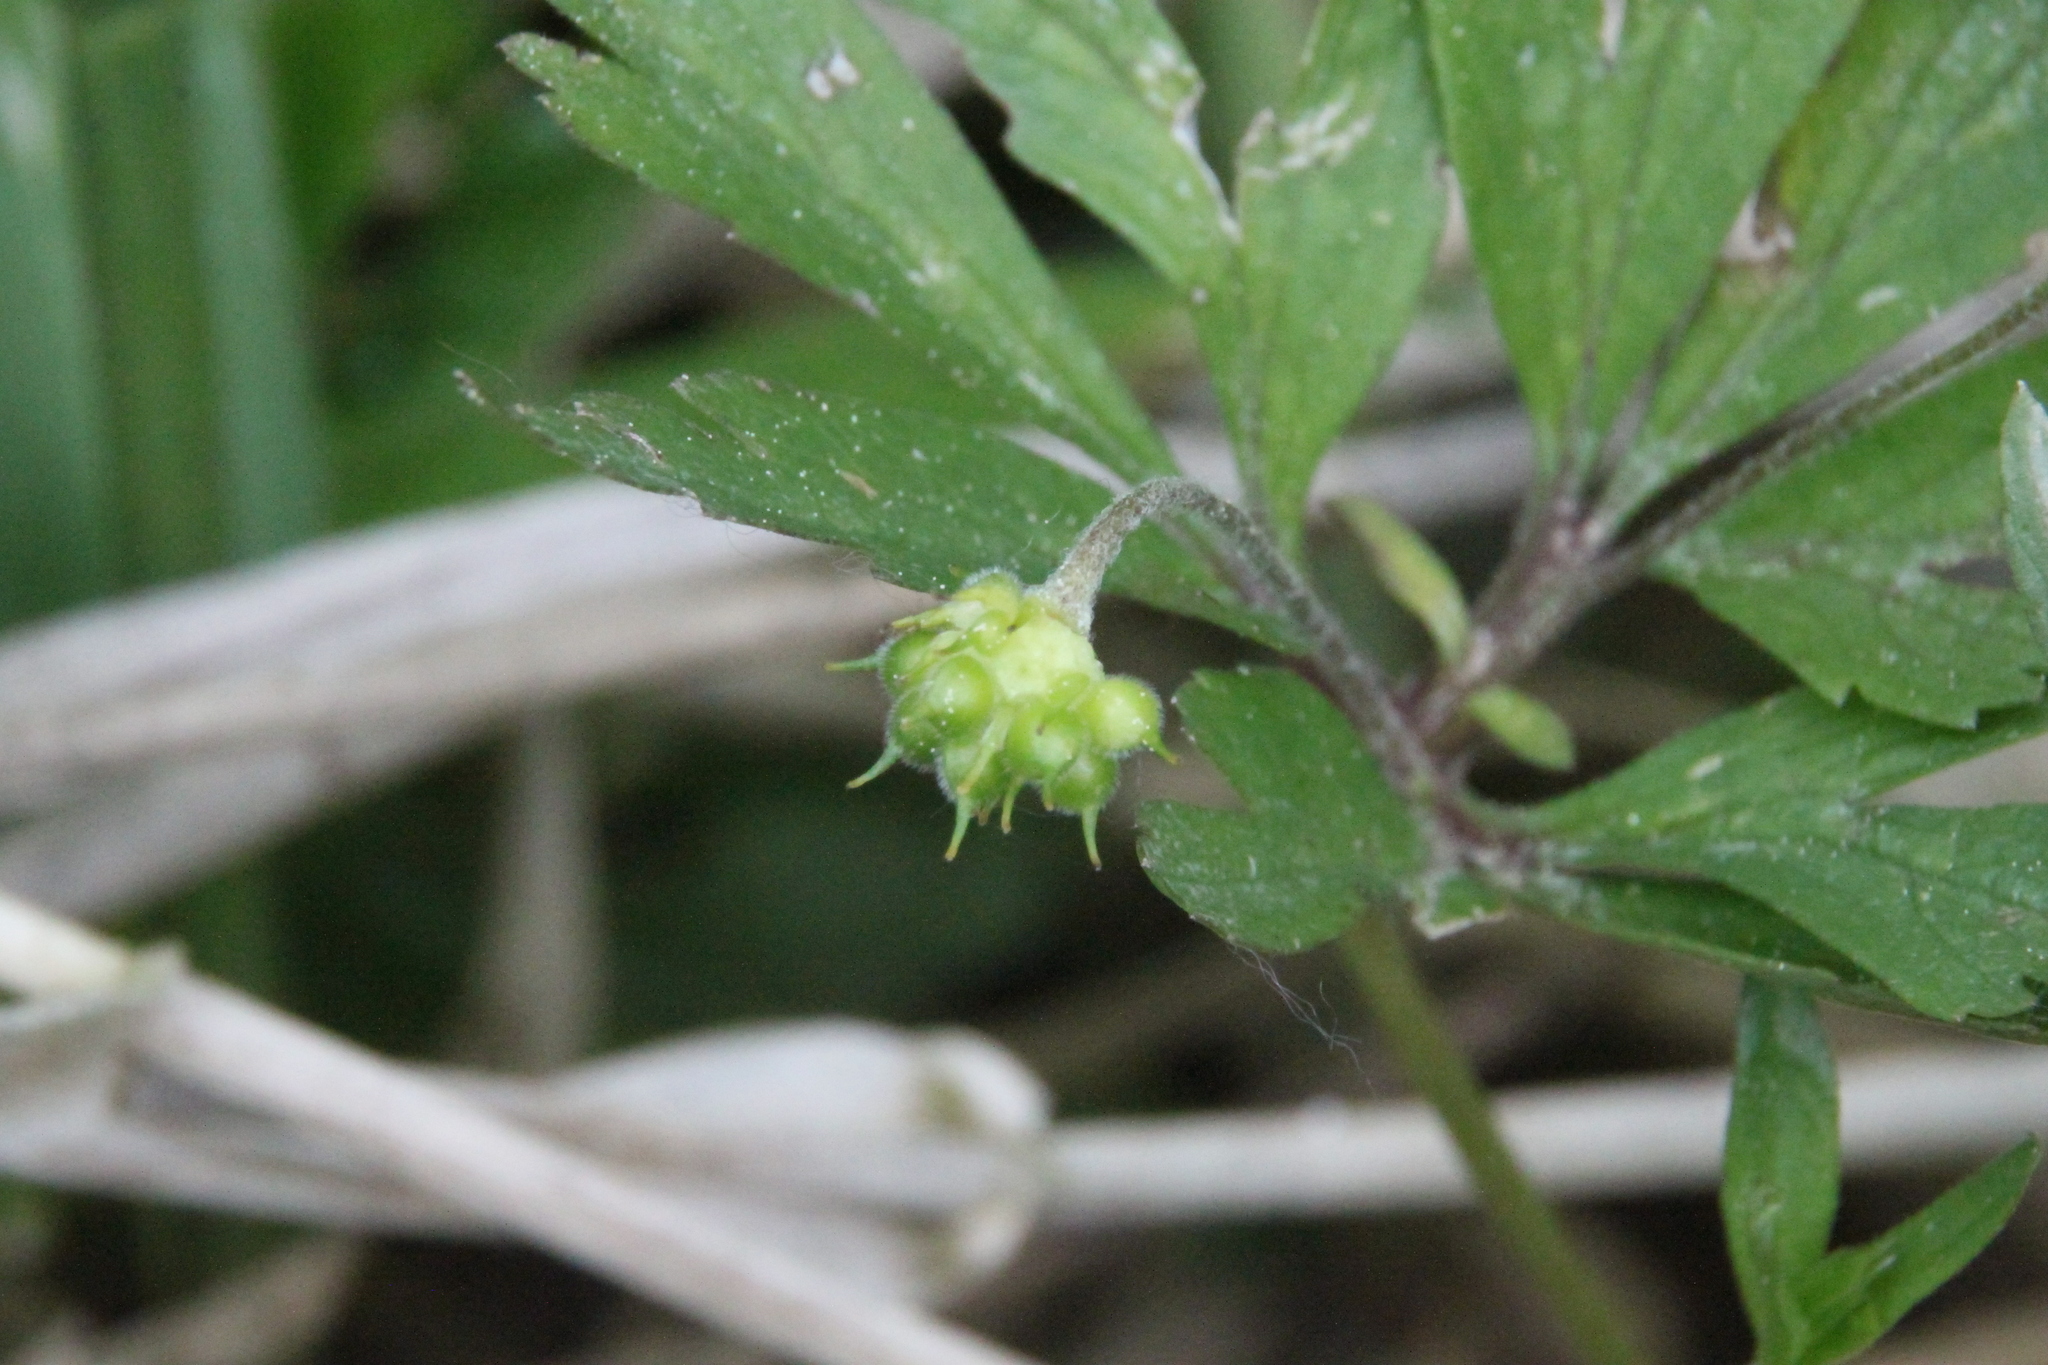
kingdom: Plantae
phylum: Tracheophyta
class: Magnoliopsida
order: Ranunculales
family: Ranunculaceae
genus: Anemone
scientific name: Anemone ranunculoides
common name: Yellow anemone
